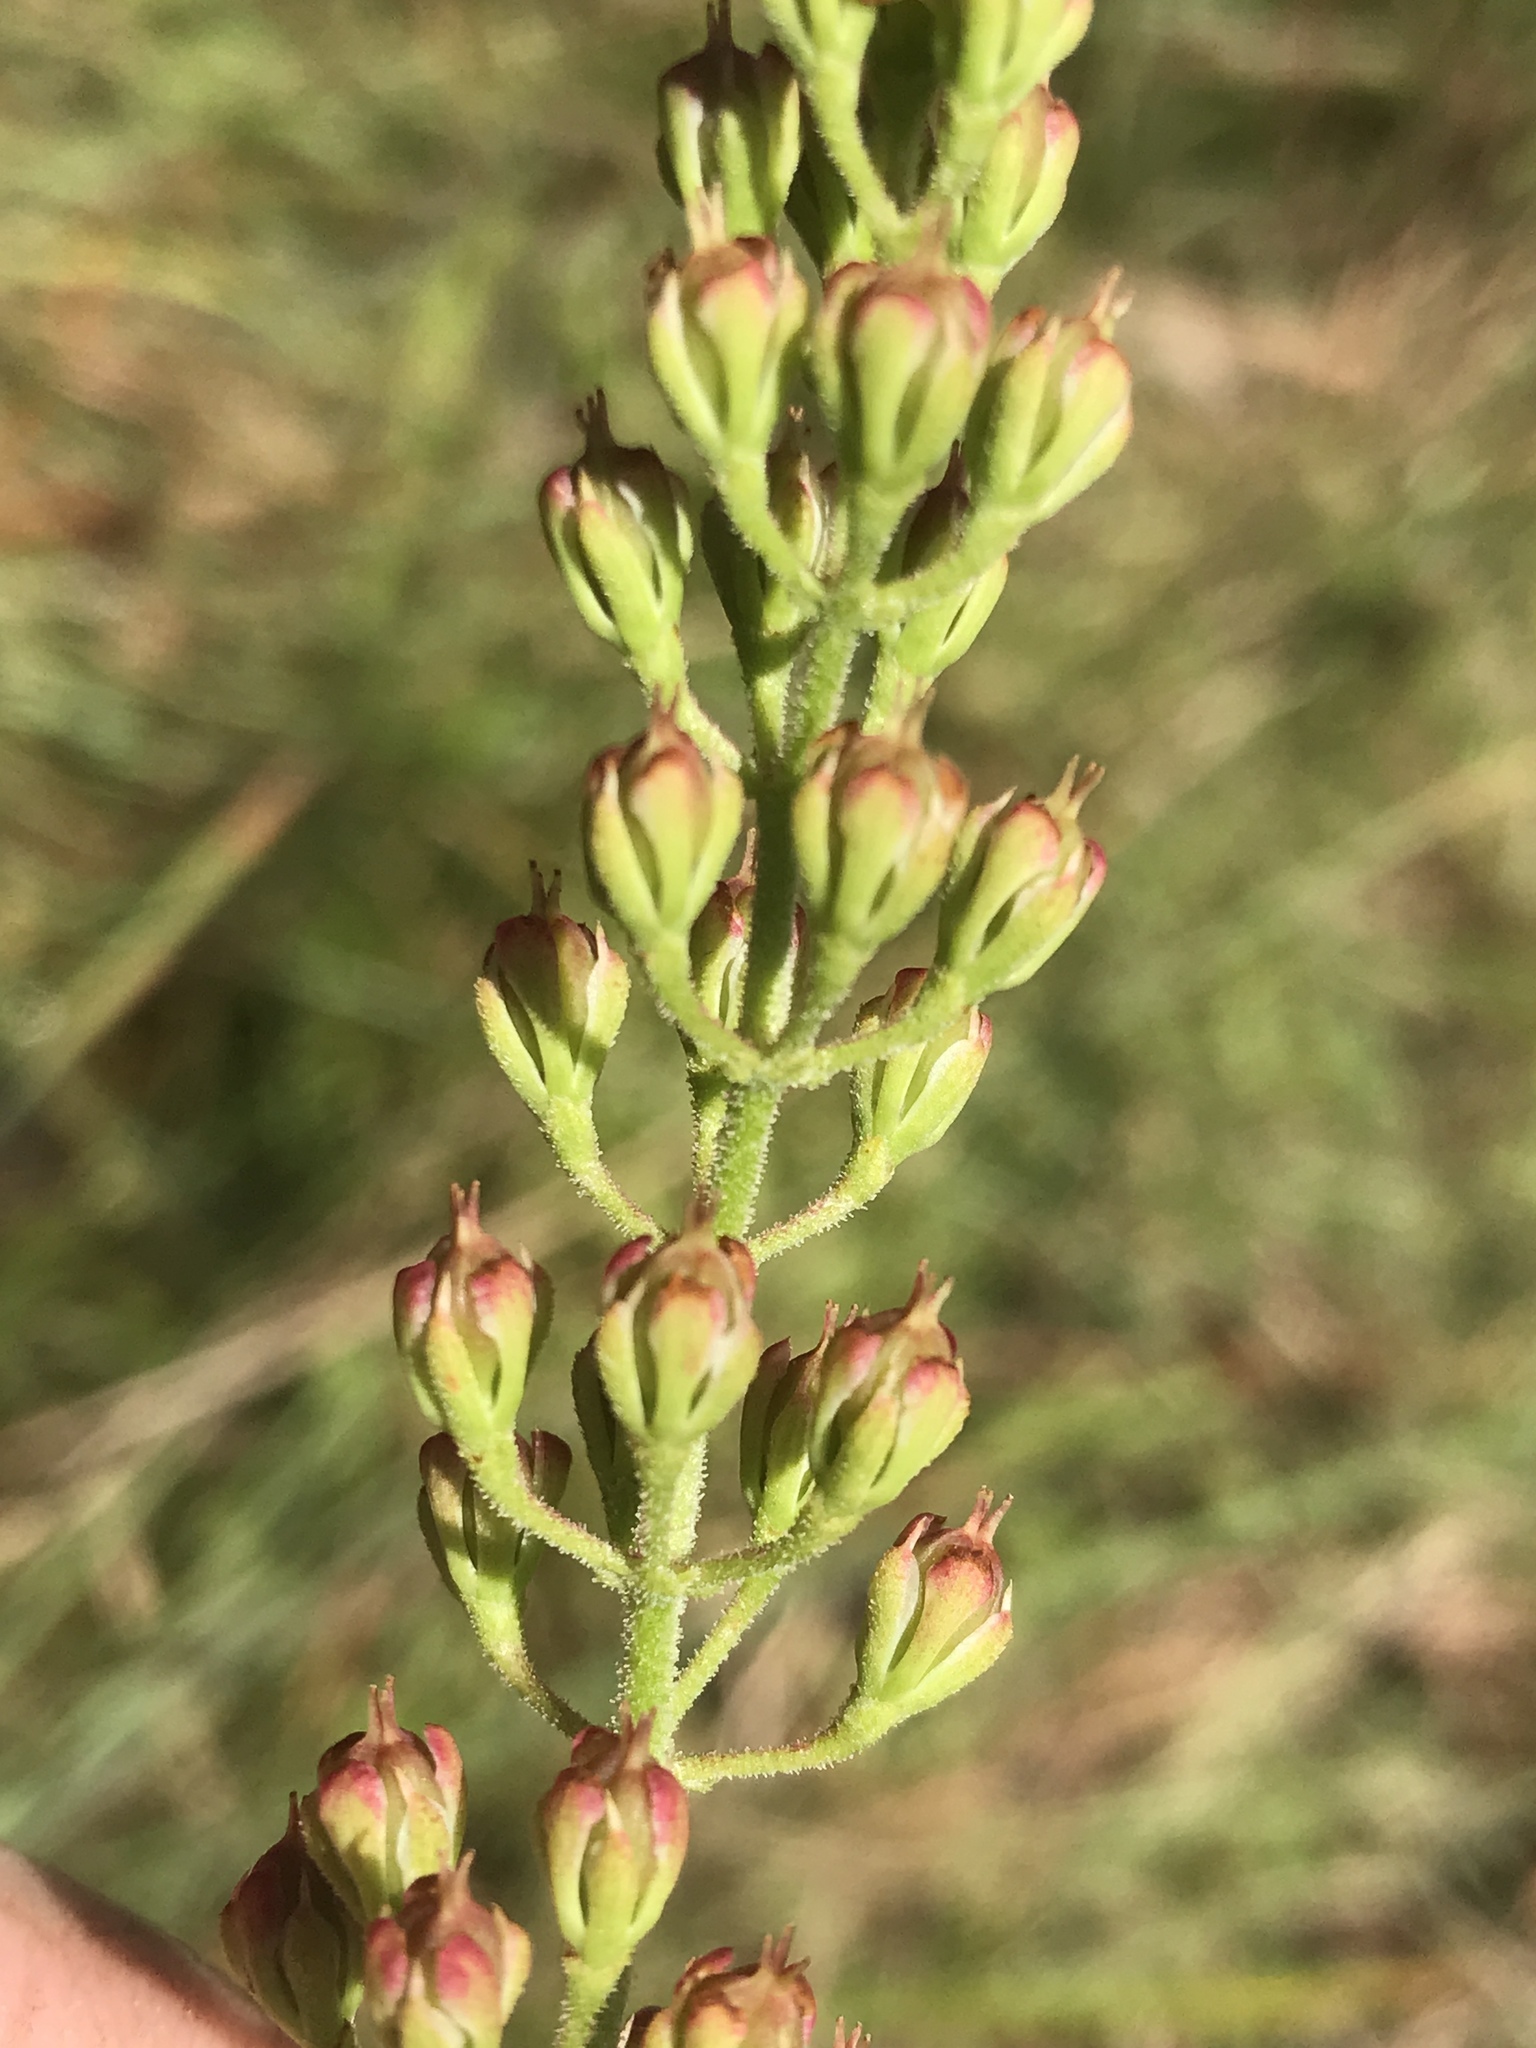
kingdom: Plantae
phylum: Tracheophyta
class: Liliopsida
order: Alismatales
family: Tofieldiaceae
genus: Triantha
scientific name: Triantha racemosa
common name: Coastal false asphodel
